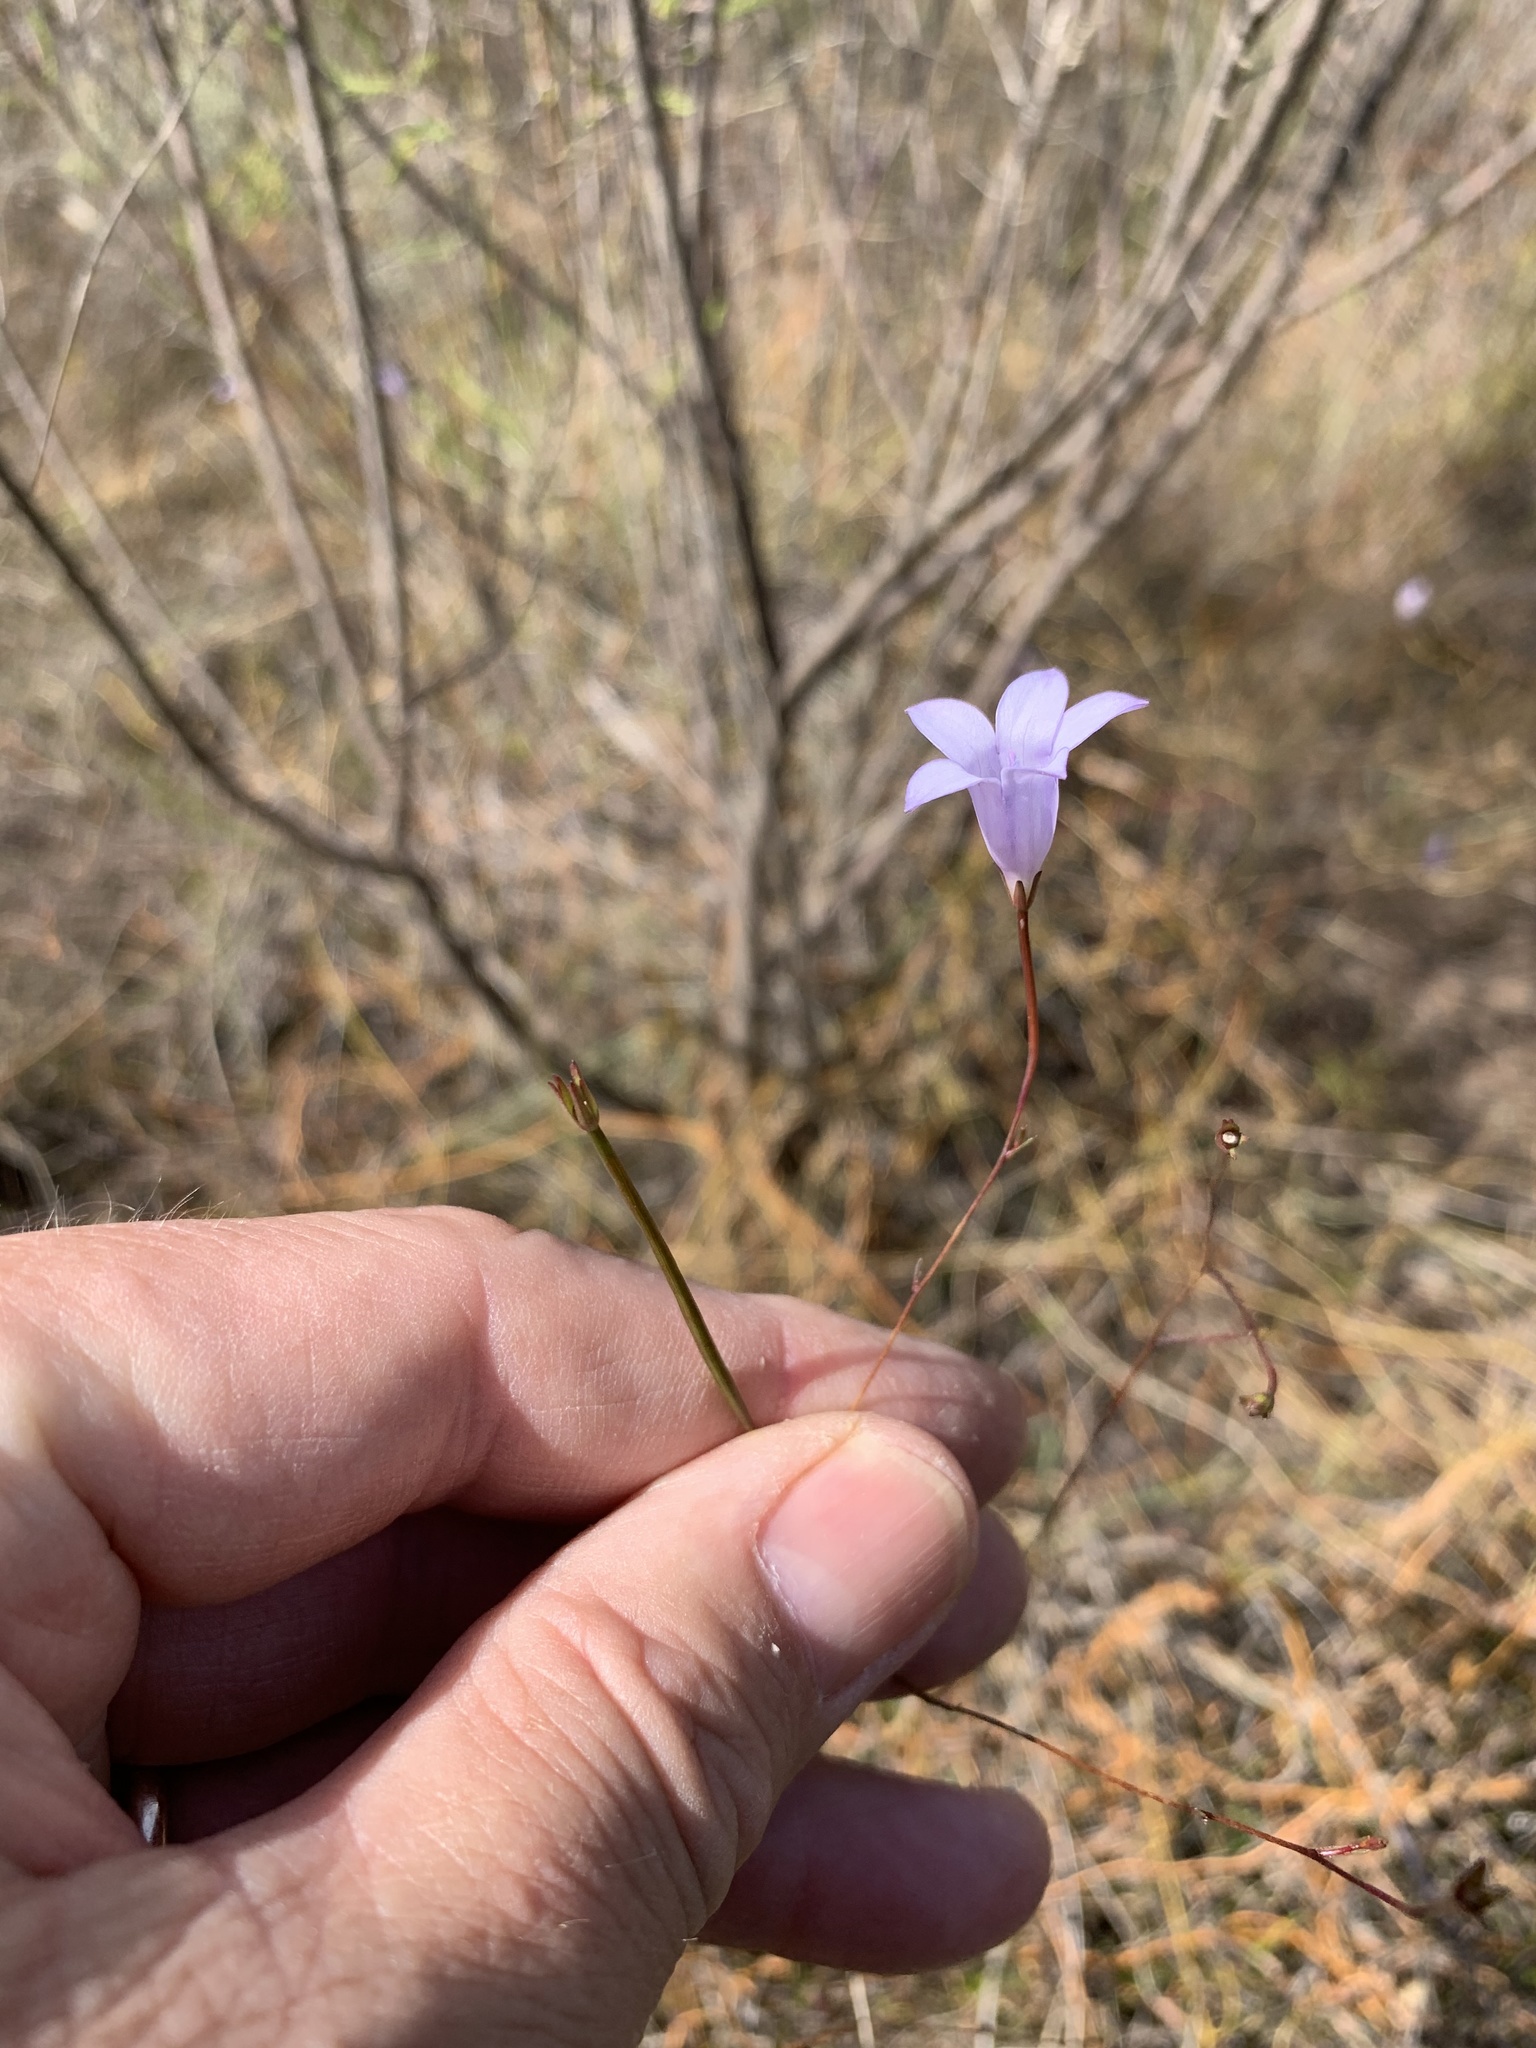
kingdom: Plantae
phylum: Tracheophyta
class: Magnoliopsida
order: Asterales
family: Campanulaceae
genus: Wahlenbergia
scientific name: Wahlenbergia paniculata
